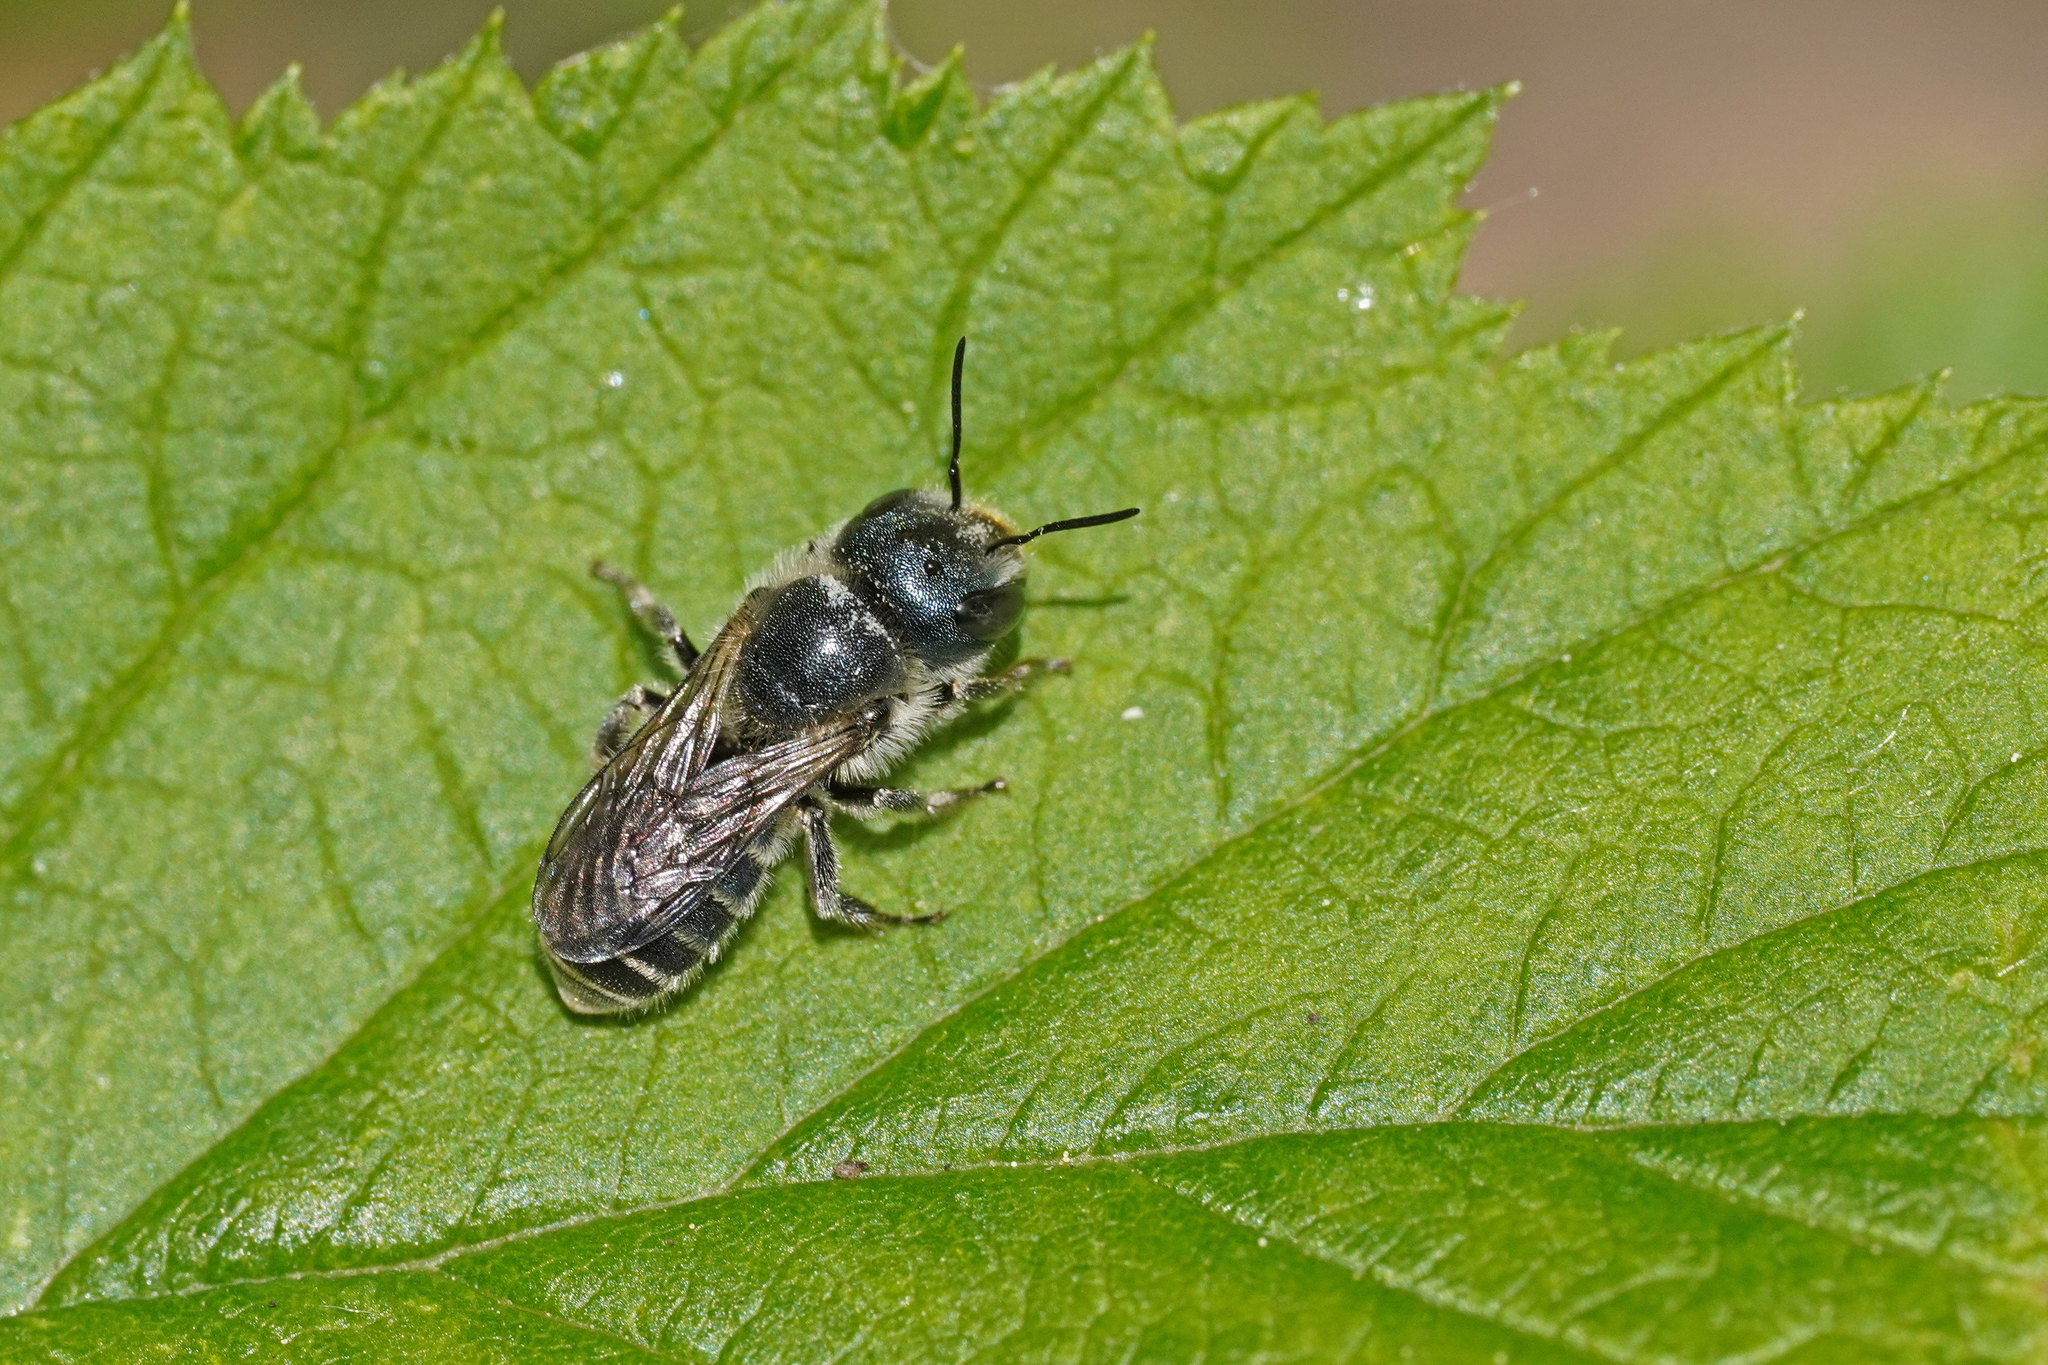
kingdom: Animalia
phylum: Arthropoda
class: Insecta
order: Hymenoptera
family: Megachilidae
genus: Osmia
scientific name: Osmia caerulescens
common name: Blue mason bee
